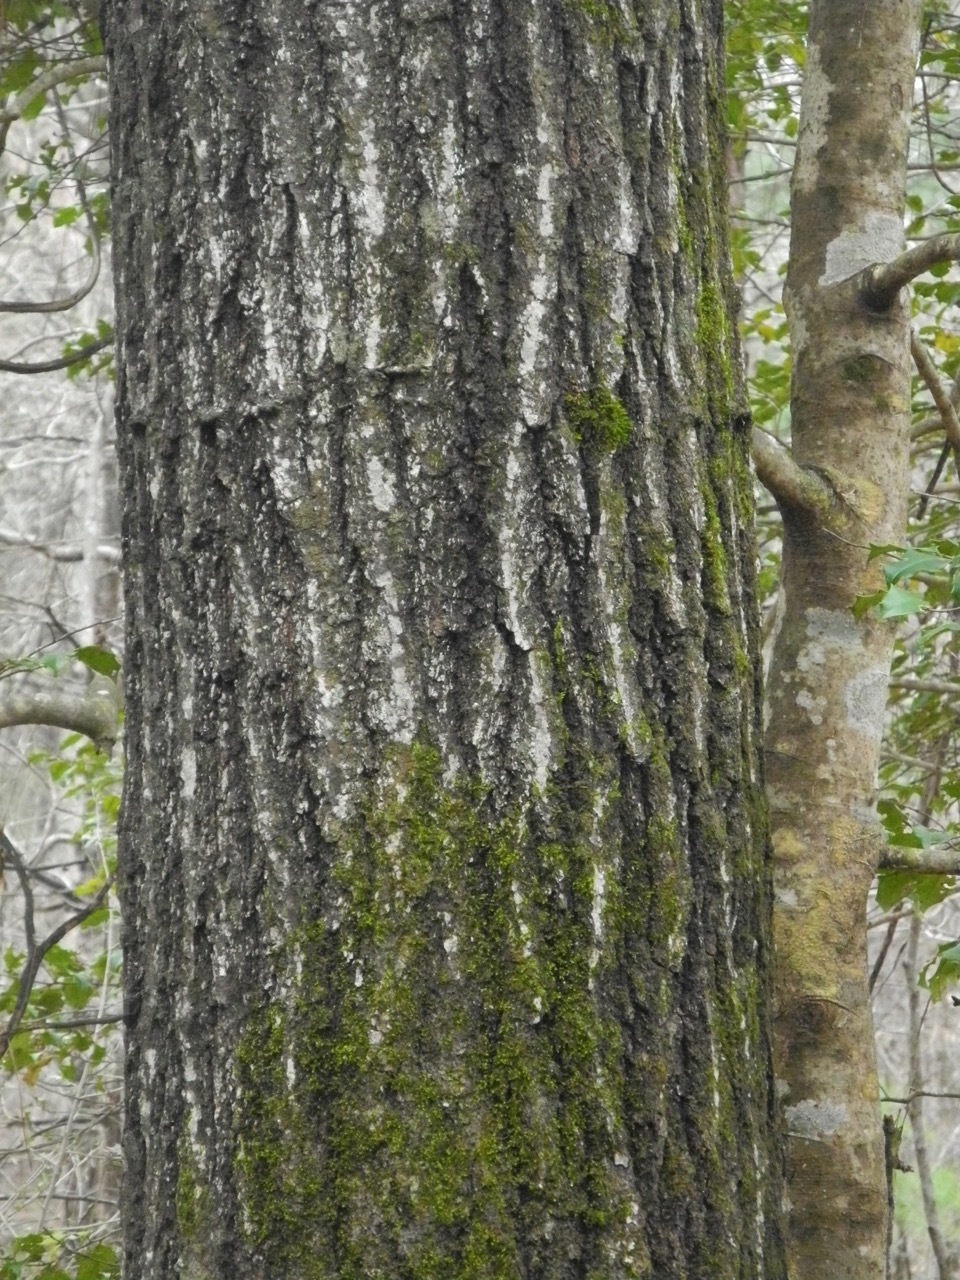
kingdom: Plantae
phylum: Tracheophyta
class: Magnoliopsida
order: Fagales
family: Fagaceae
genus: Quercus
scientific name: Quercus rubra
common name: Red oak
